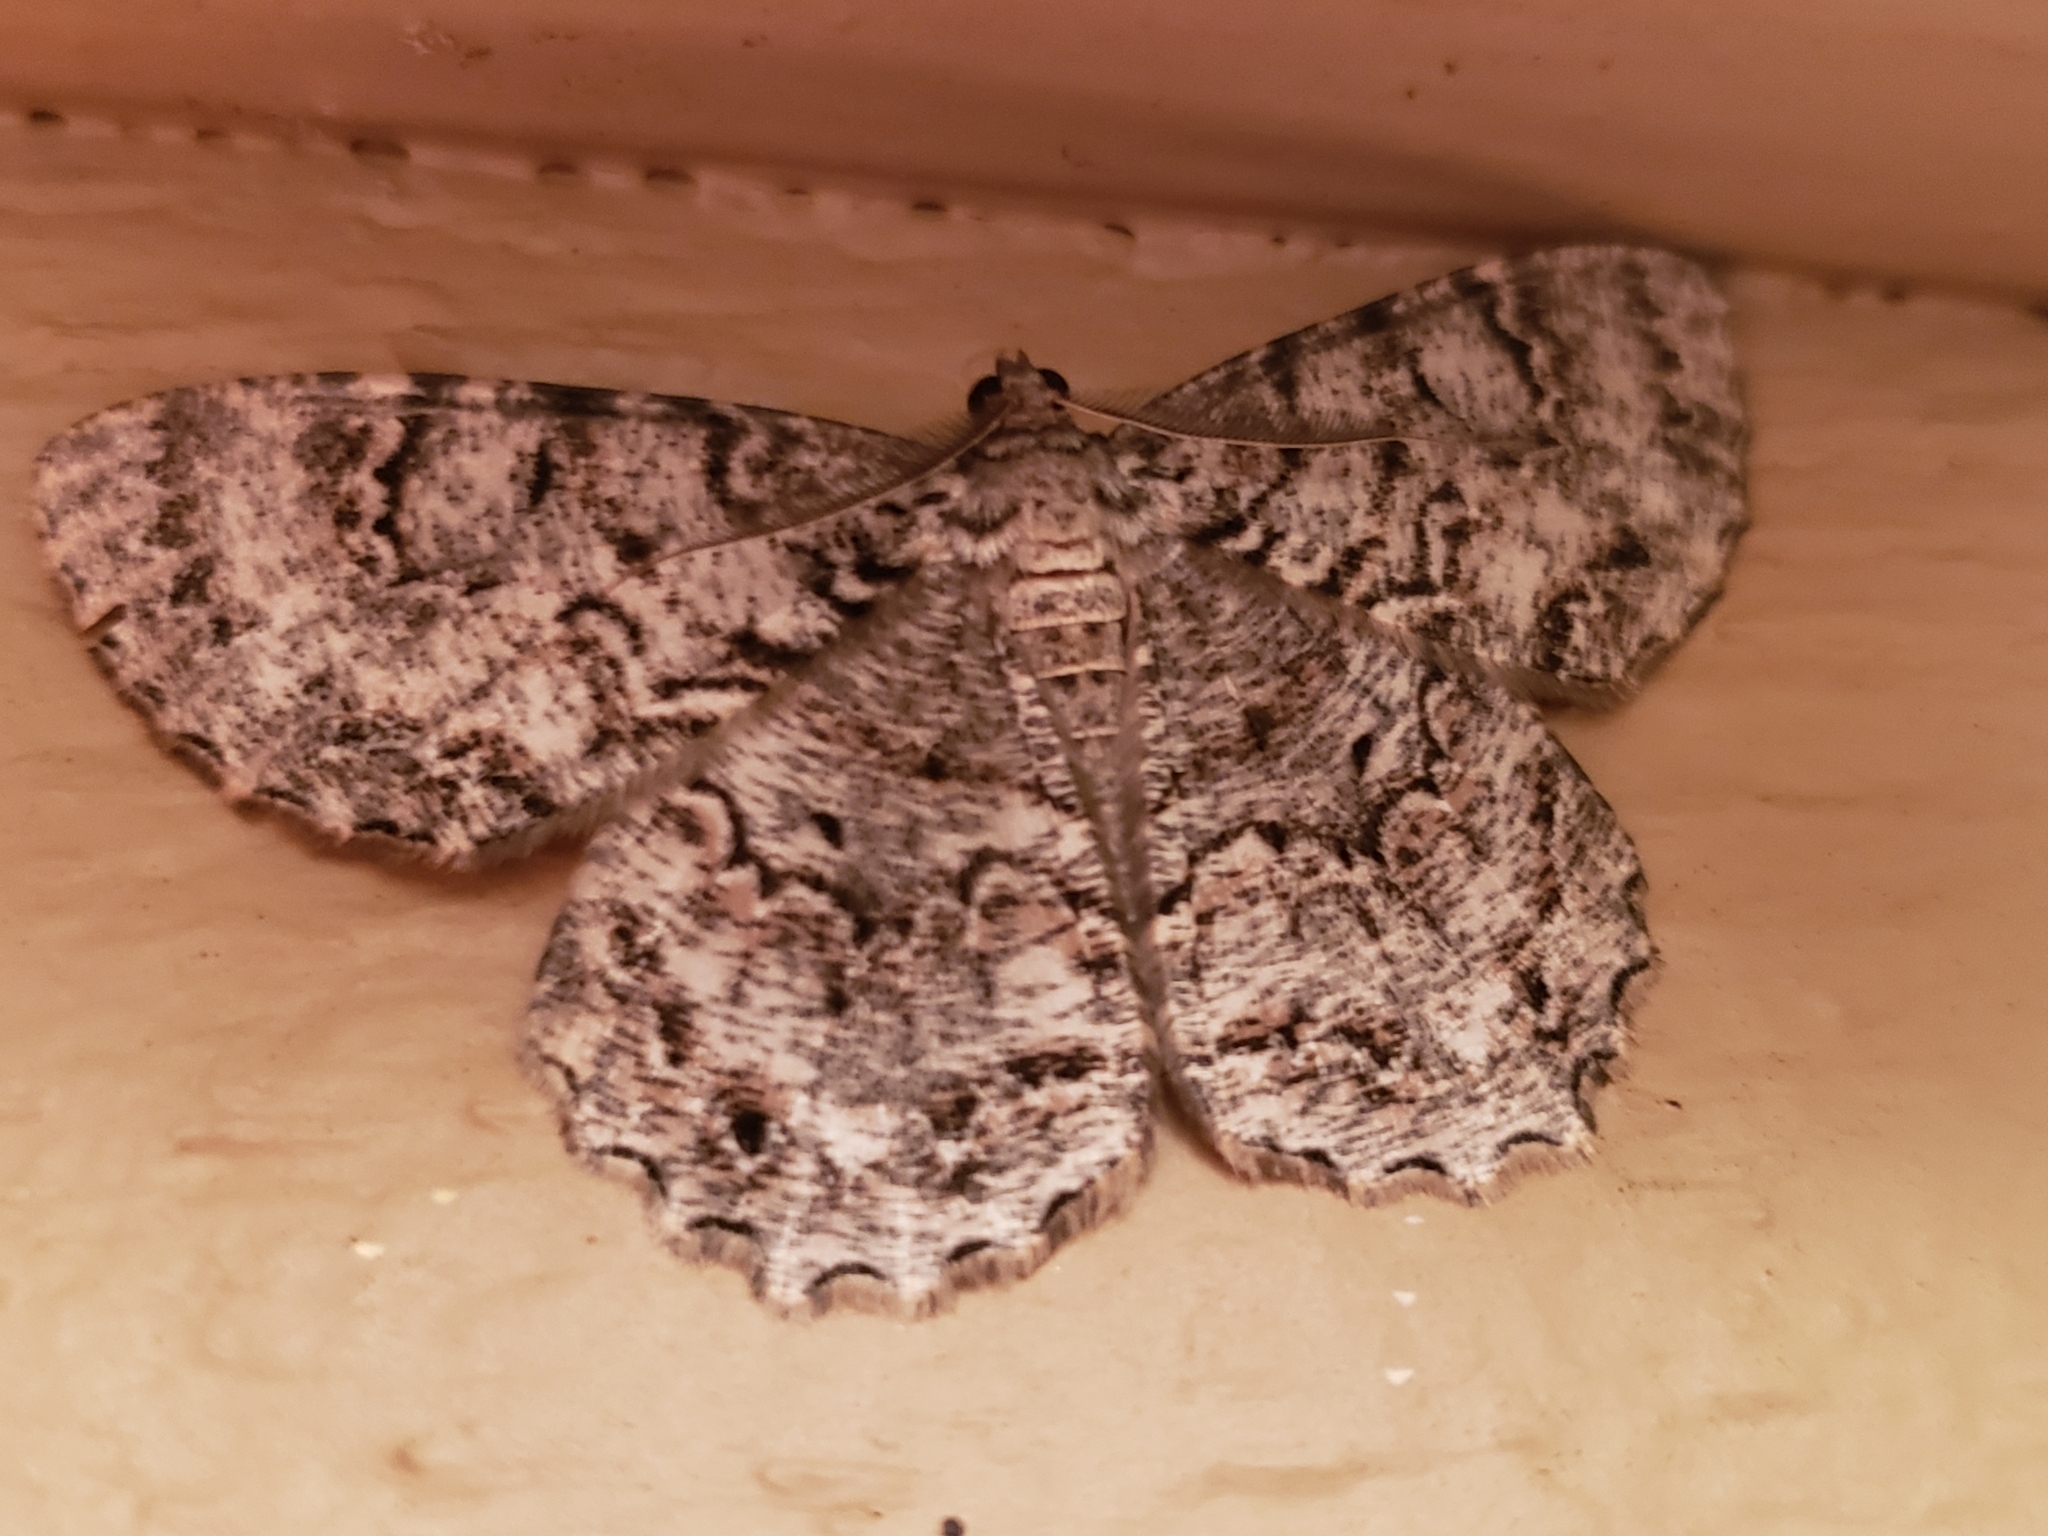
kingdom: Animalia
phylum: Arthropoda
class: Insecta
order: Lepidoptera
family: Geometridae
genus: Epimecis
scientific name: Epimecis hortaria
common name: Tulip-tree beauty
